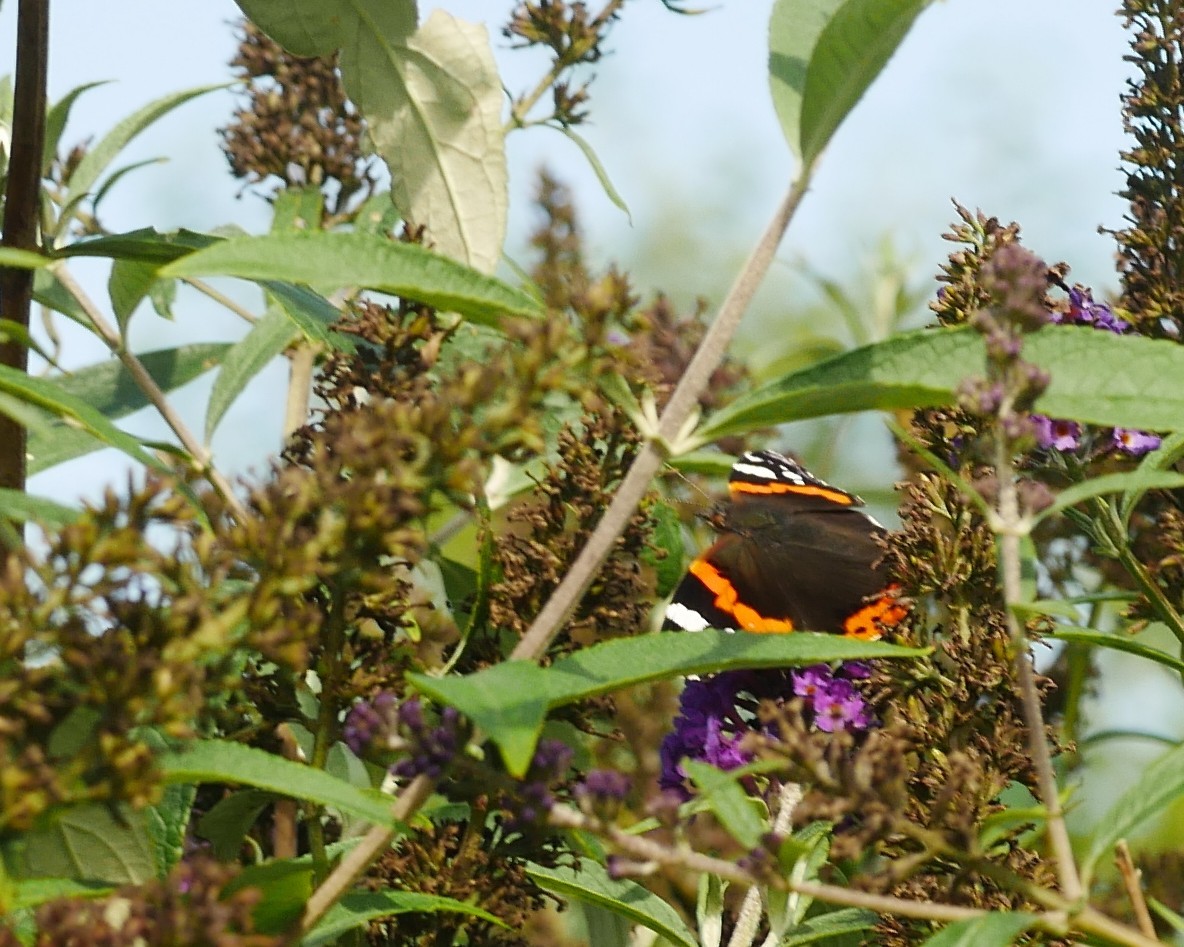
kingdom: Animalia
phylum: Arthropoda
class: Insecta
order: Lepidoptera
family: Nymphalidae
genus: Vanessa
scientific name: Vanessa atalanta
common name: Red admiral
